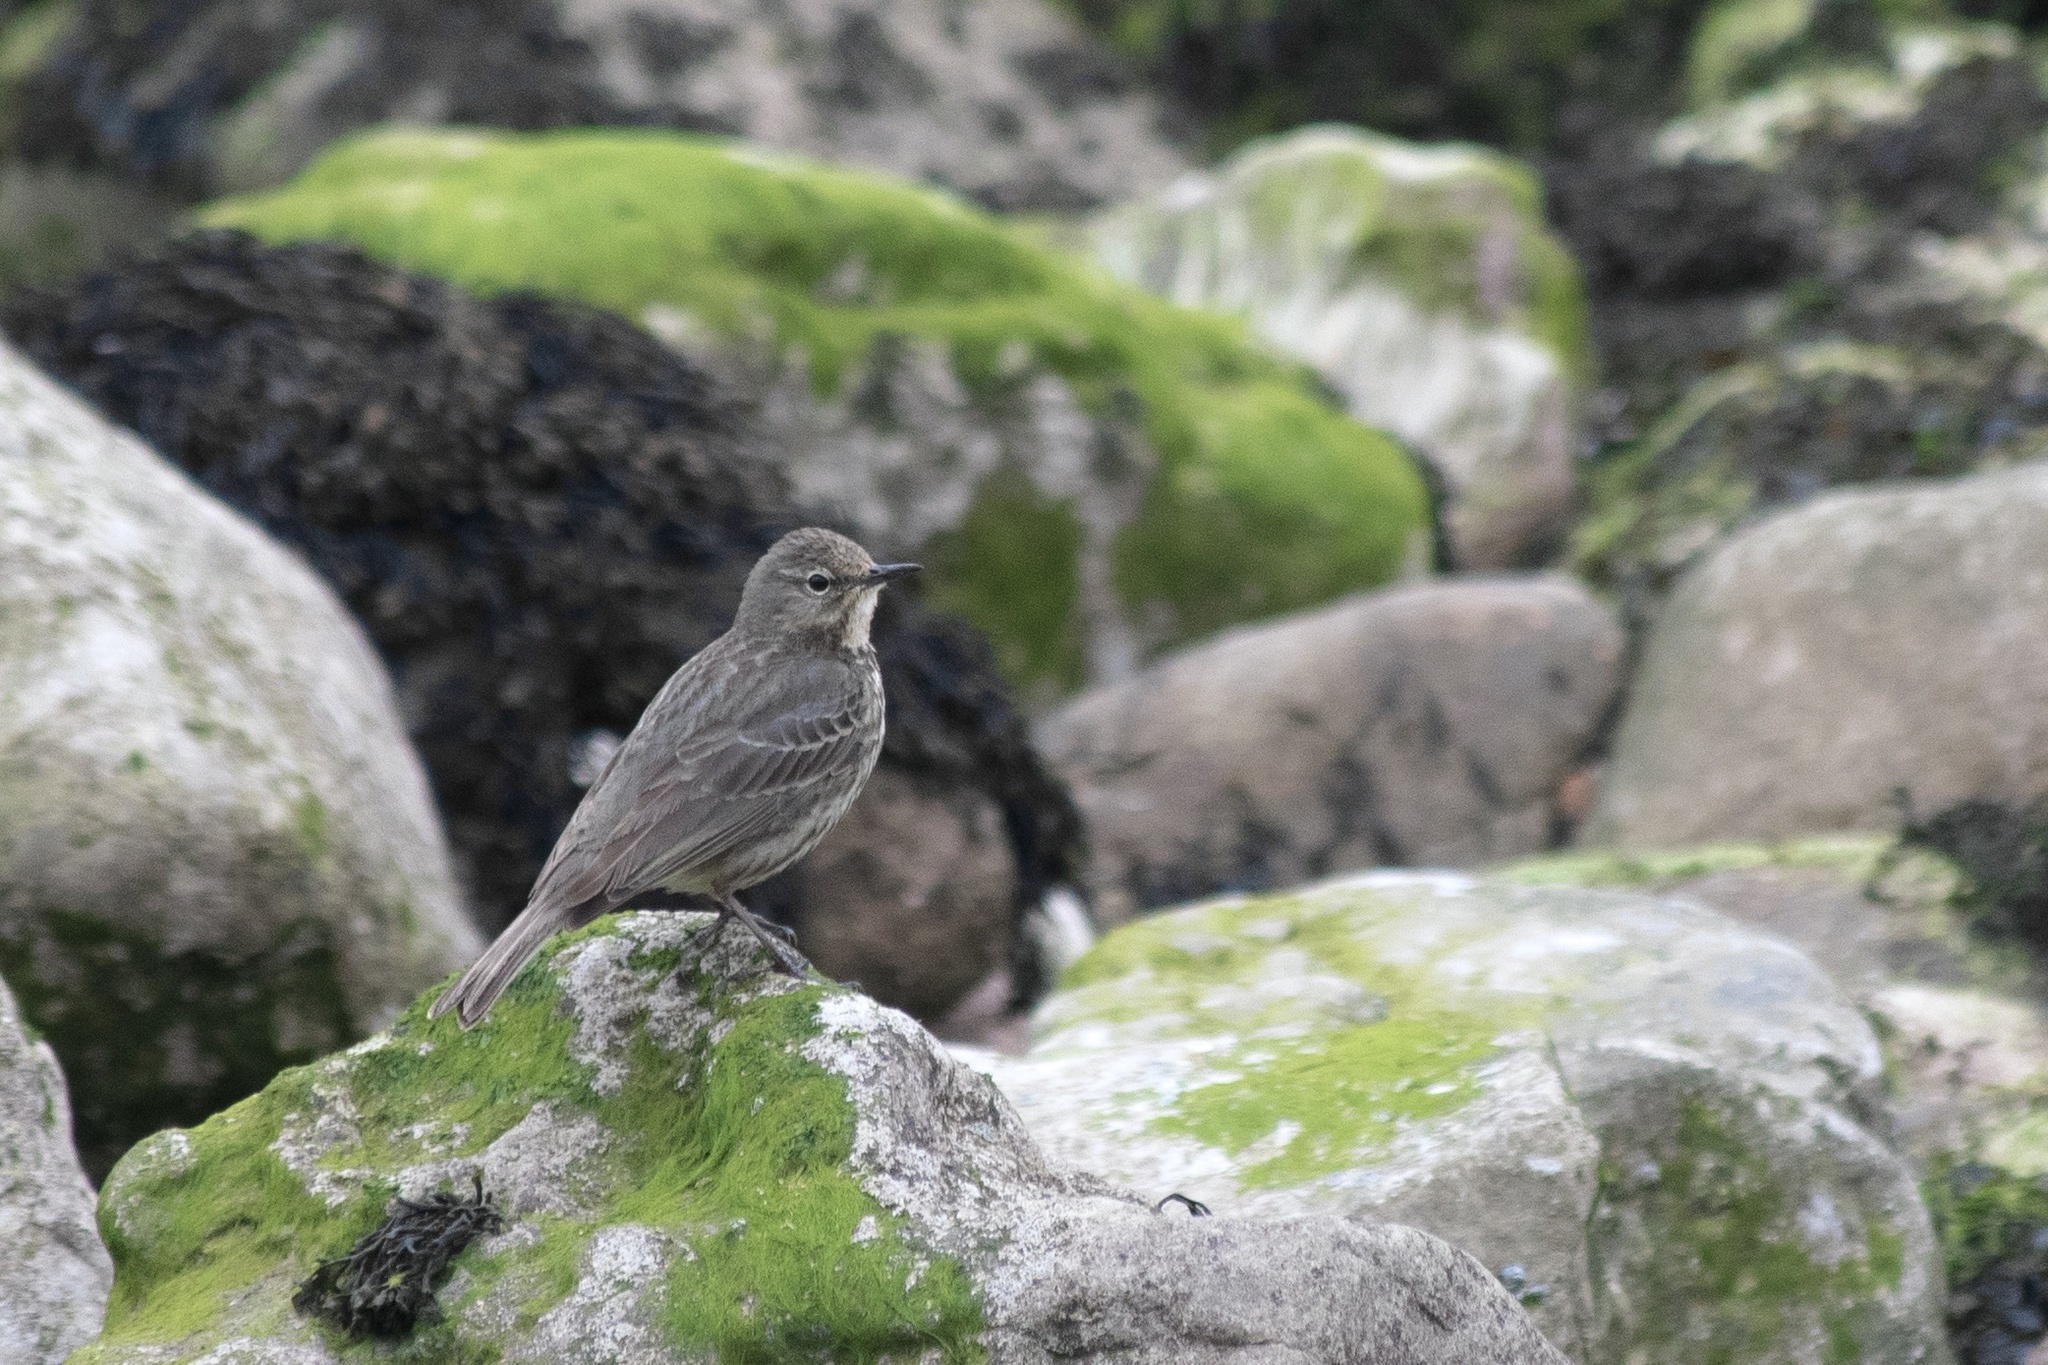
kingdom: Animalia
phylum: Chordata
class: Aves
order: Passeriformes
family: Motacillidae
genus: Anthus
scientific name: Anthus petrosus
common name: Eurasian rock pipit
